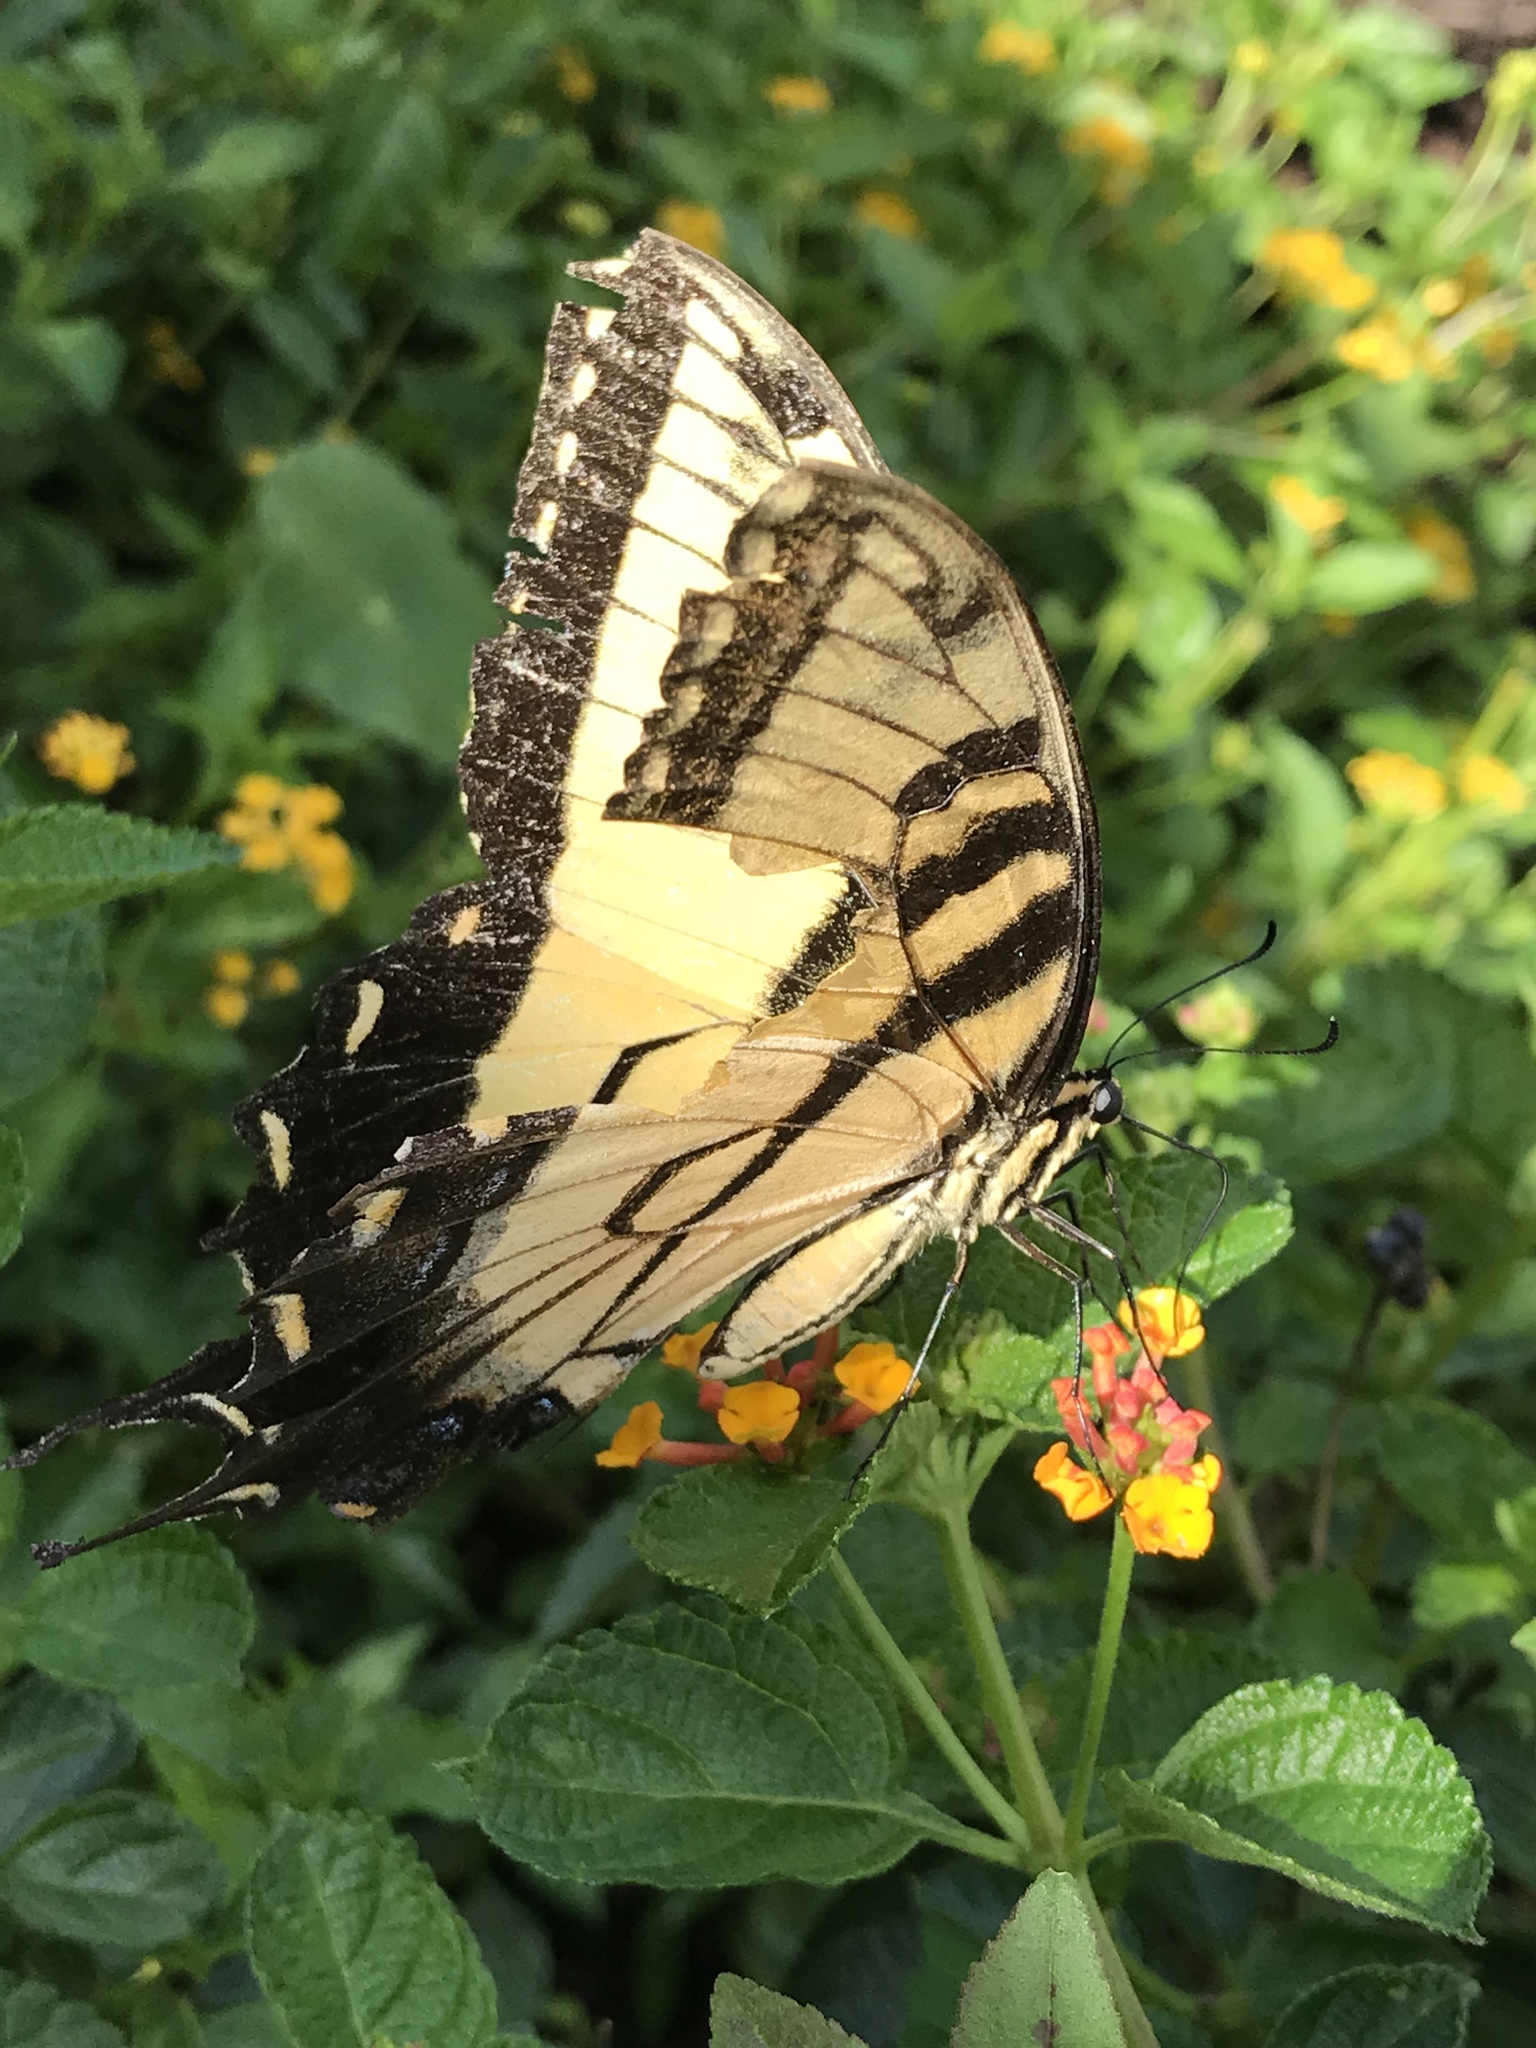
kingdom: Animalia
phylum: Arthropoda
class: Insecta
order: Lepidoptera
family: Papilionidae
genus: Papilio
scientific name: Papilio glaucus
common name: Tiger swallowtail
